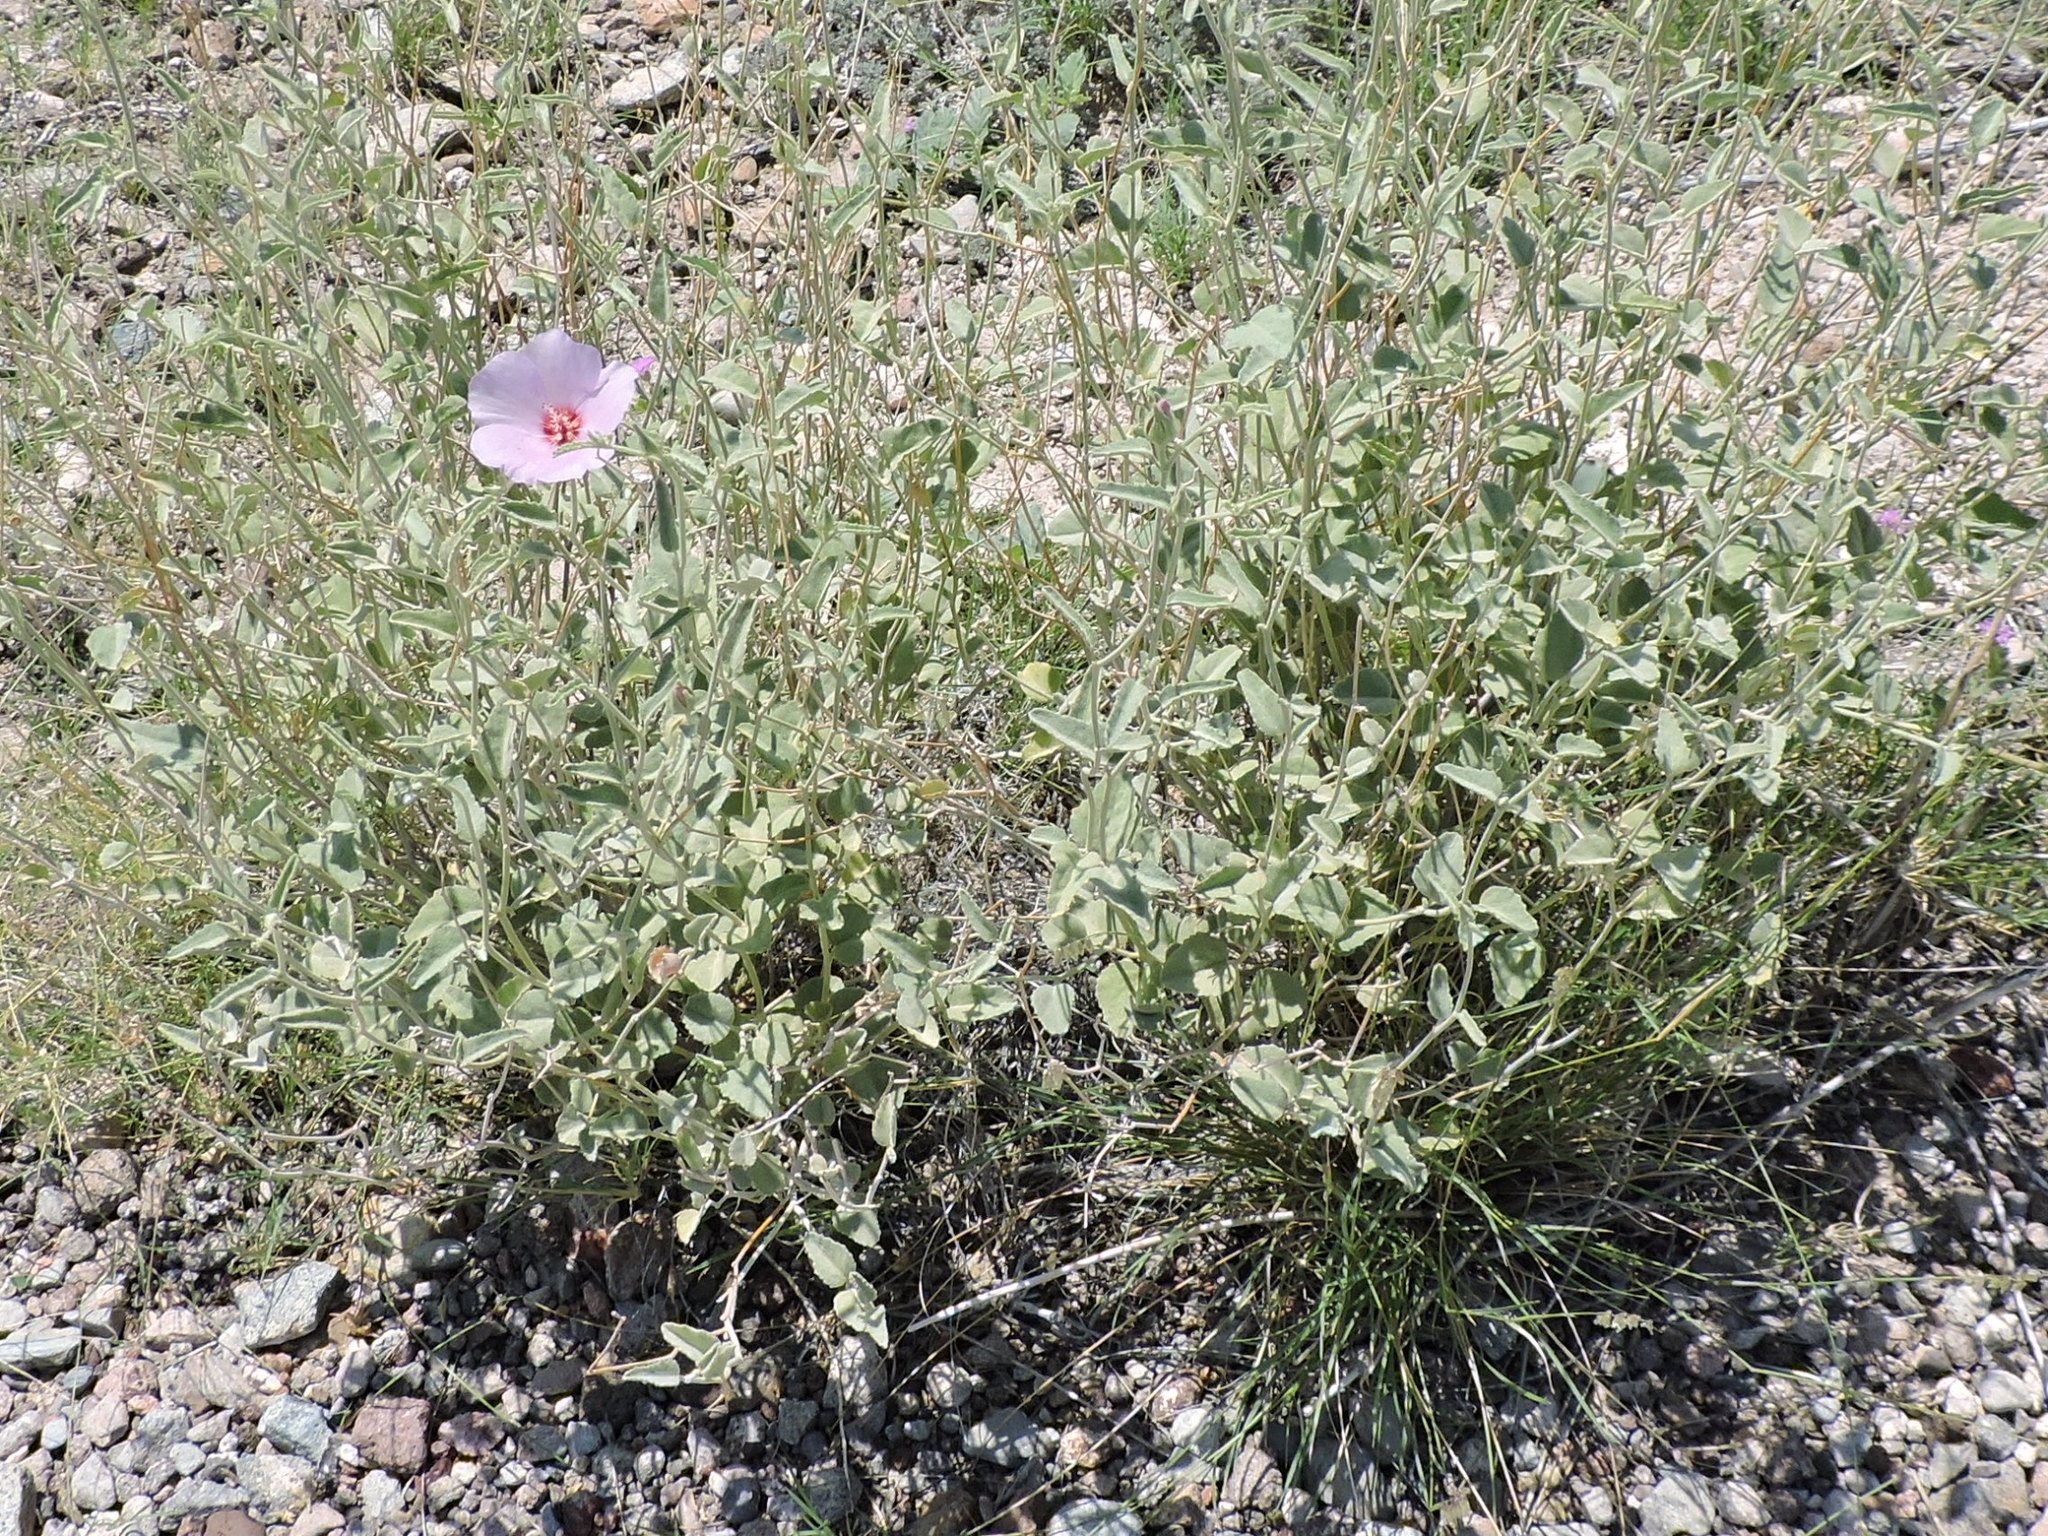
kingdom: Plantae
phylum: Tracheophyta
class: Magnoliopsida
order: Malvales
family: Malvaceae
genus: Hibiscus
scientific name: Hibiscus denudatus
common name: Paleface
